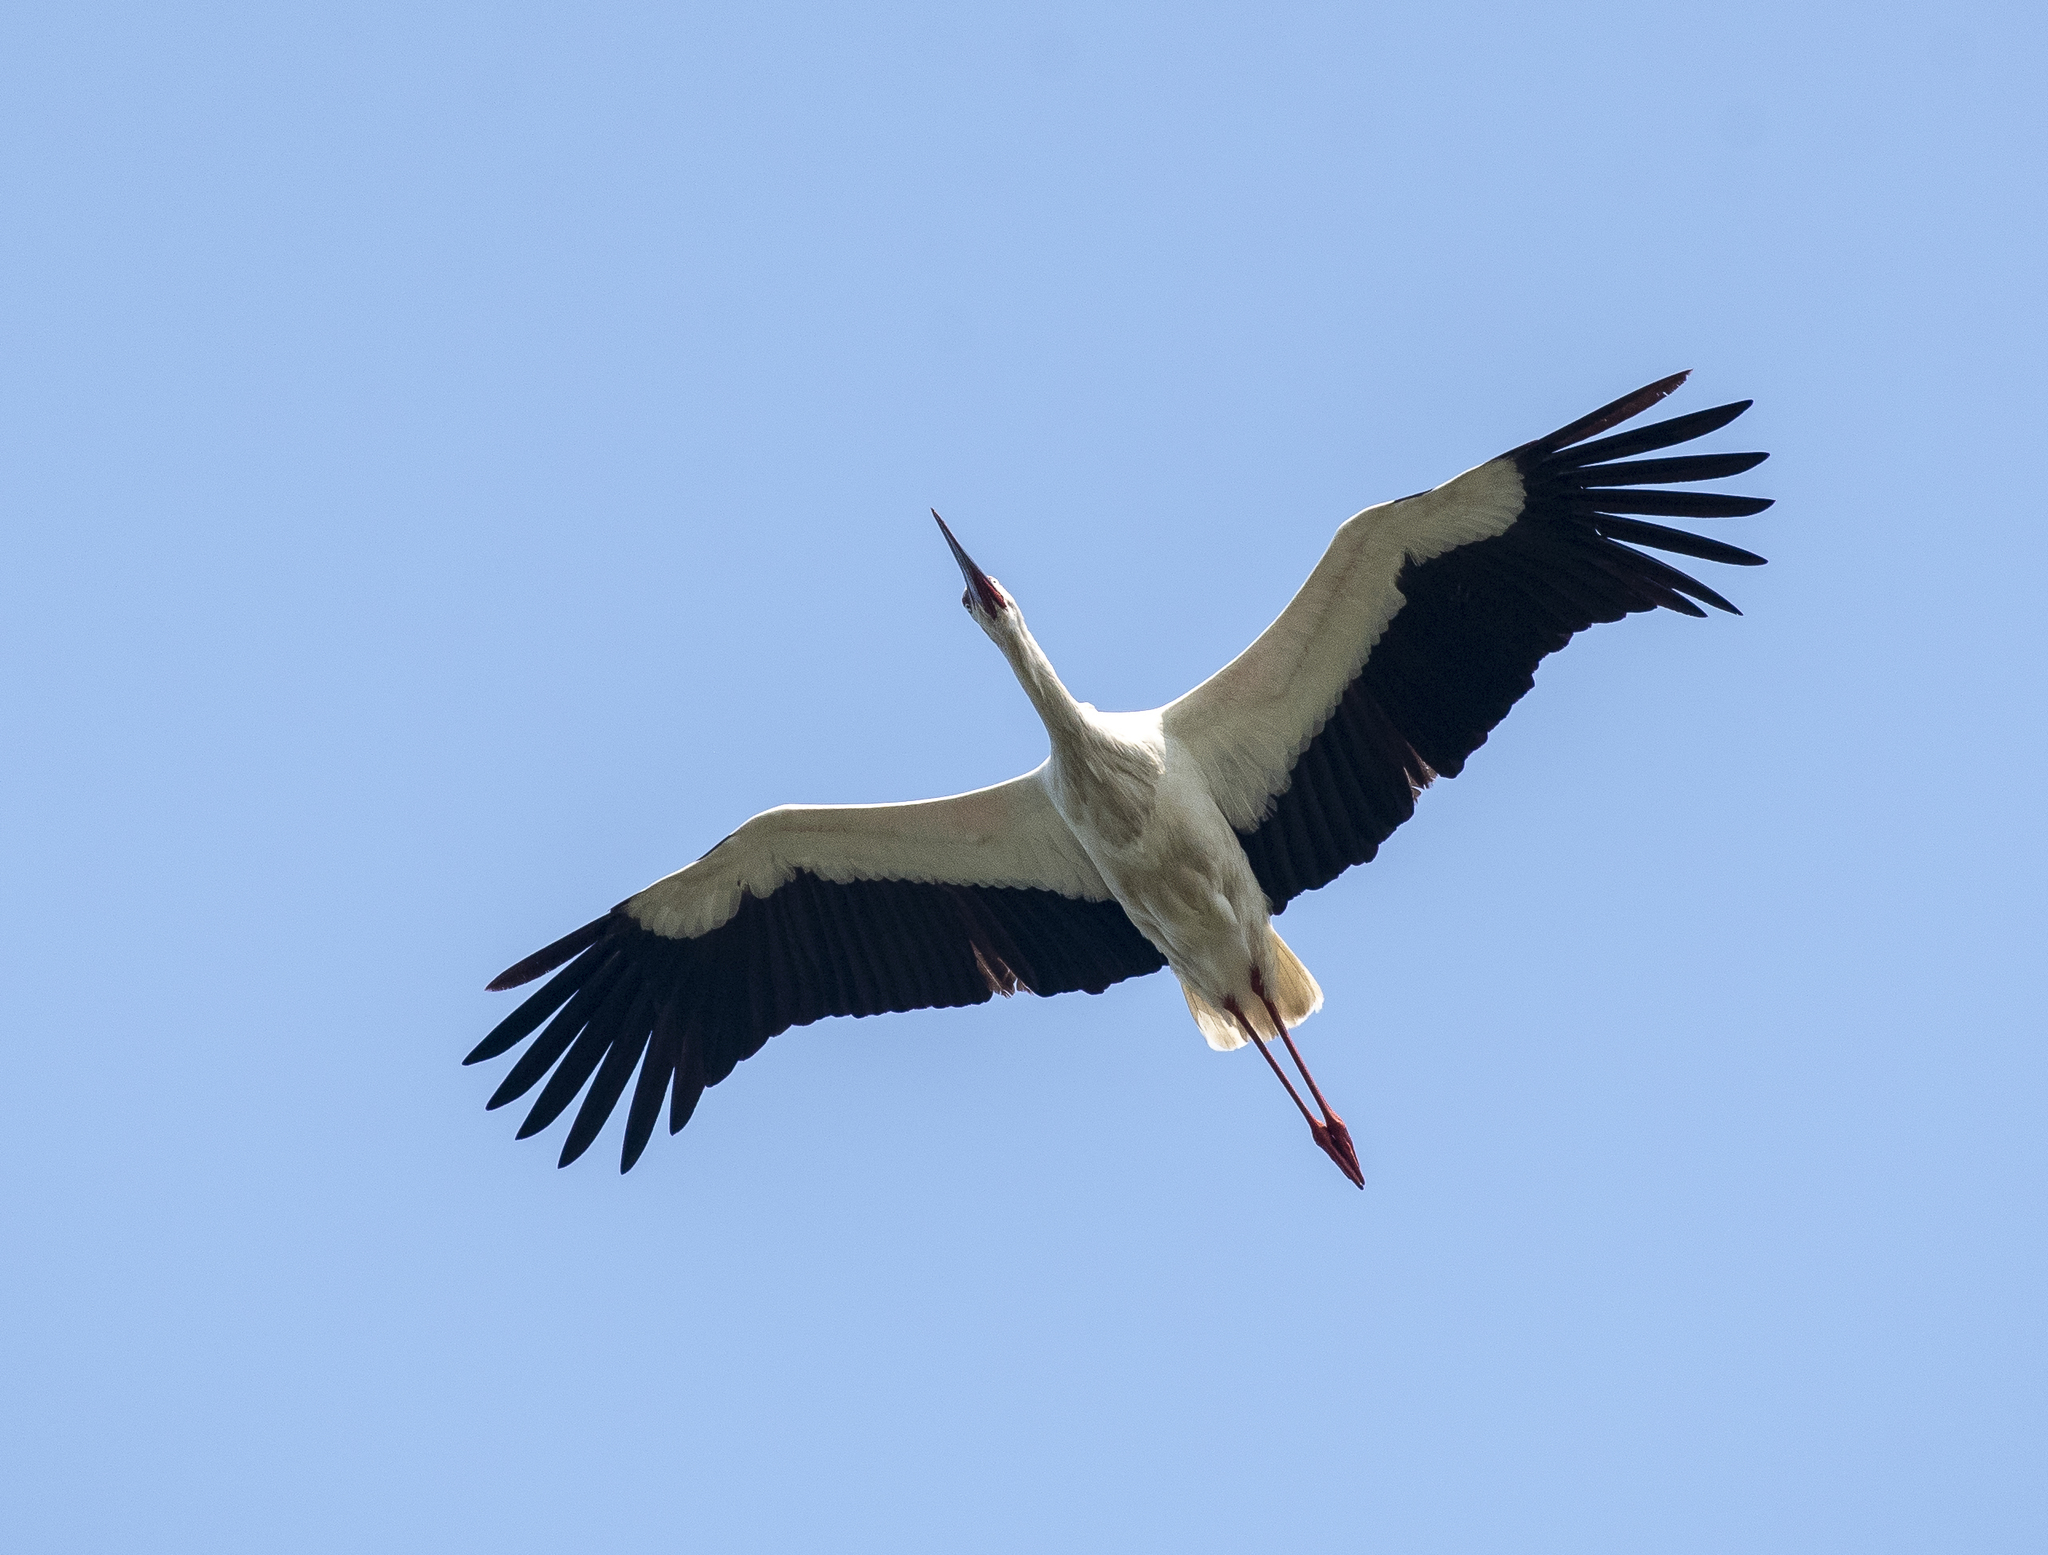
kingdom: Animalia
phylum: Chordata
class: Aves
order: Ciconiiformes
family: Ciconiidae
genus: Ciconia
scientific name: Ciconia boyciana
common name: Oriental stork
